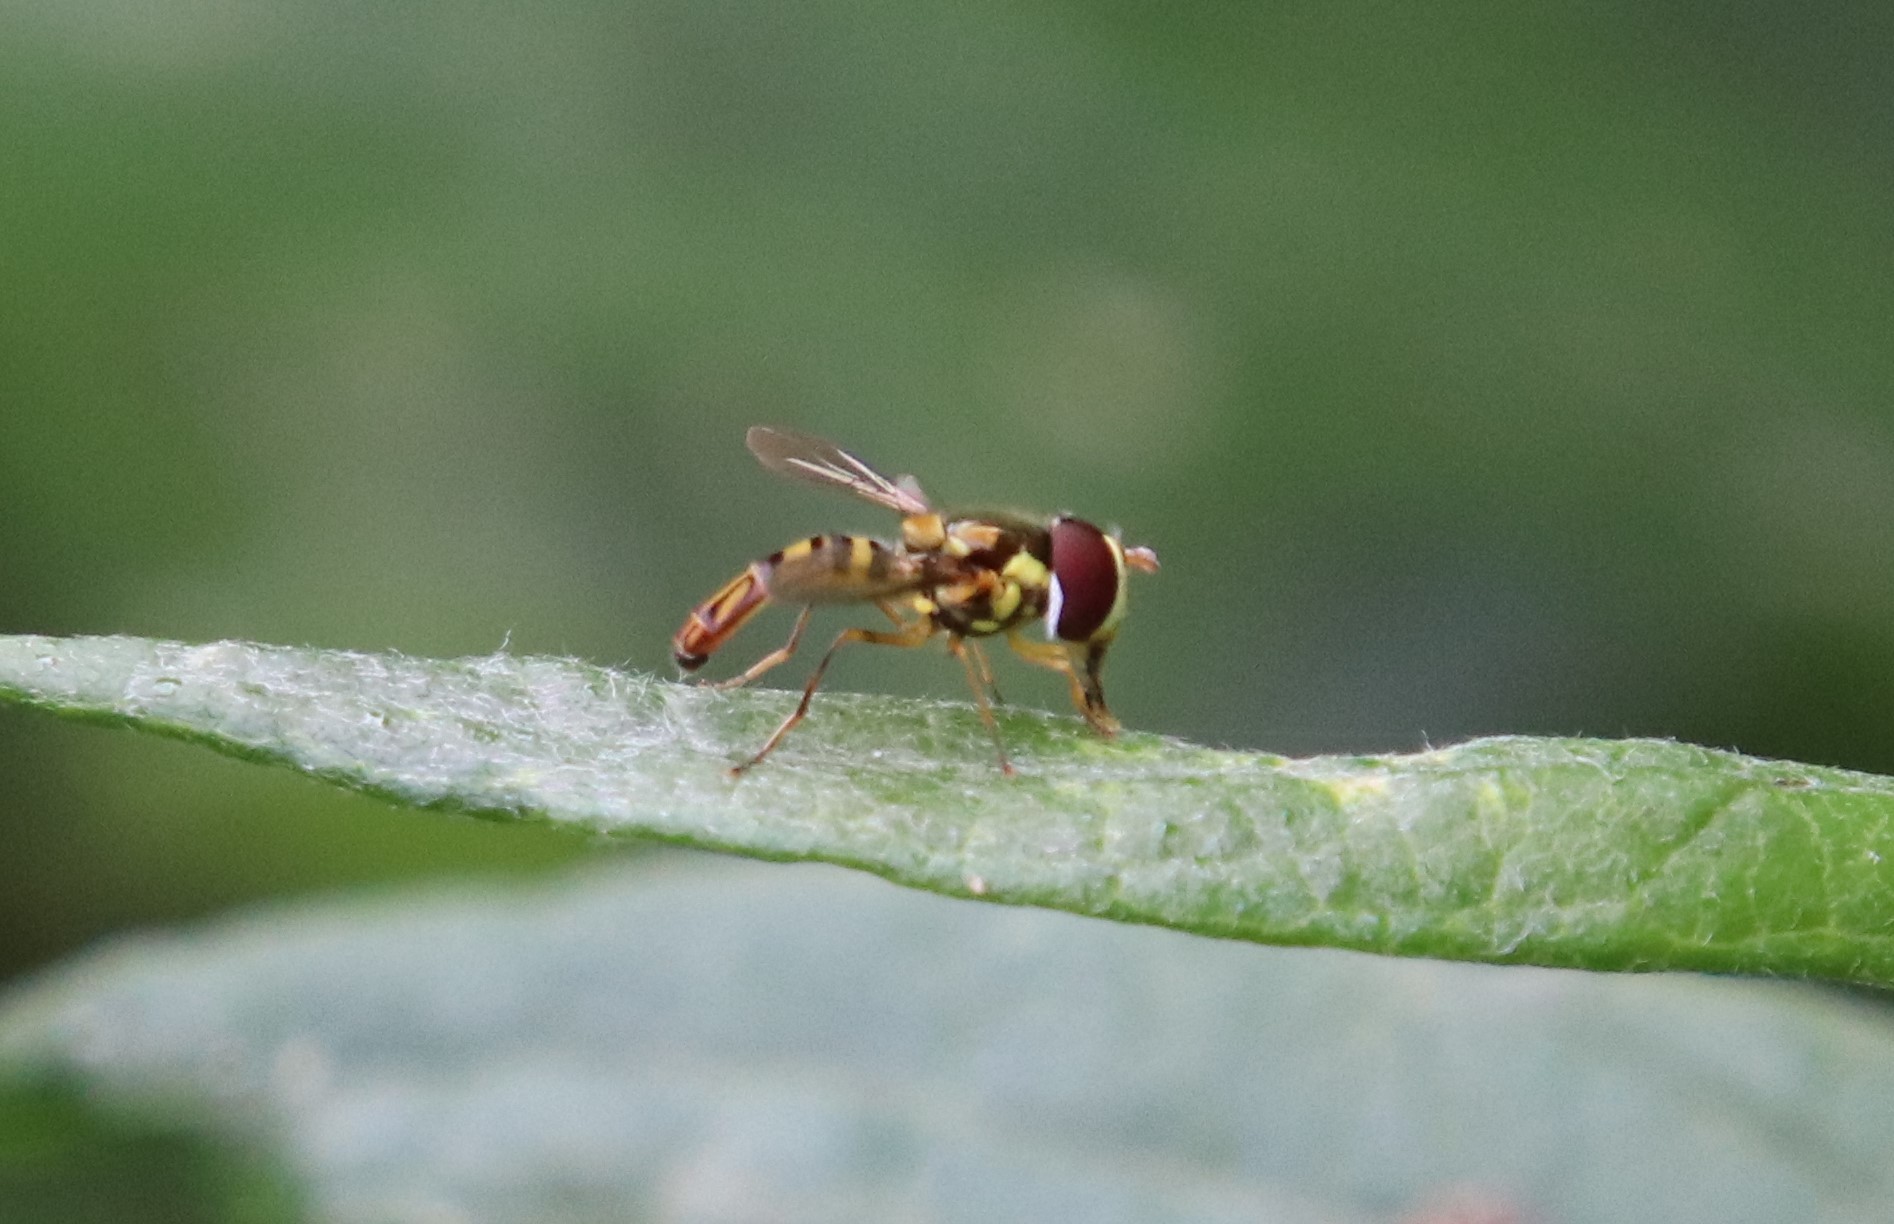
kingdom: Animalia
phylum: Arthropoda
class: Insecta
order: Diptera
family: Syrphidae
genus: Allograpta
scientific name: Allograpta obliqua
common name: Common oblique syrphid
